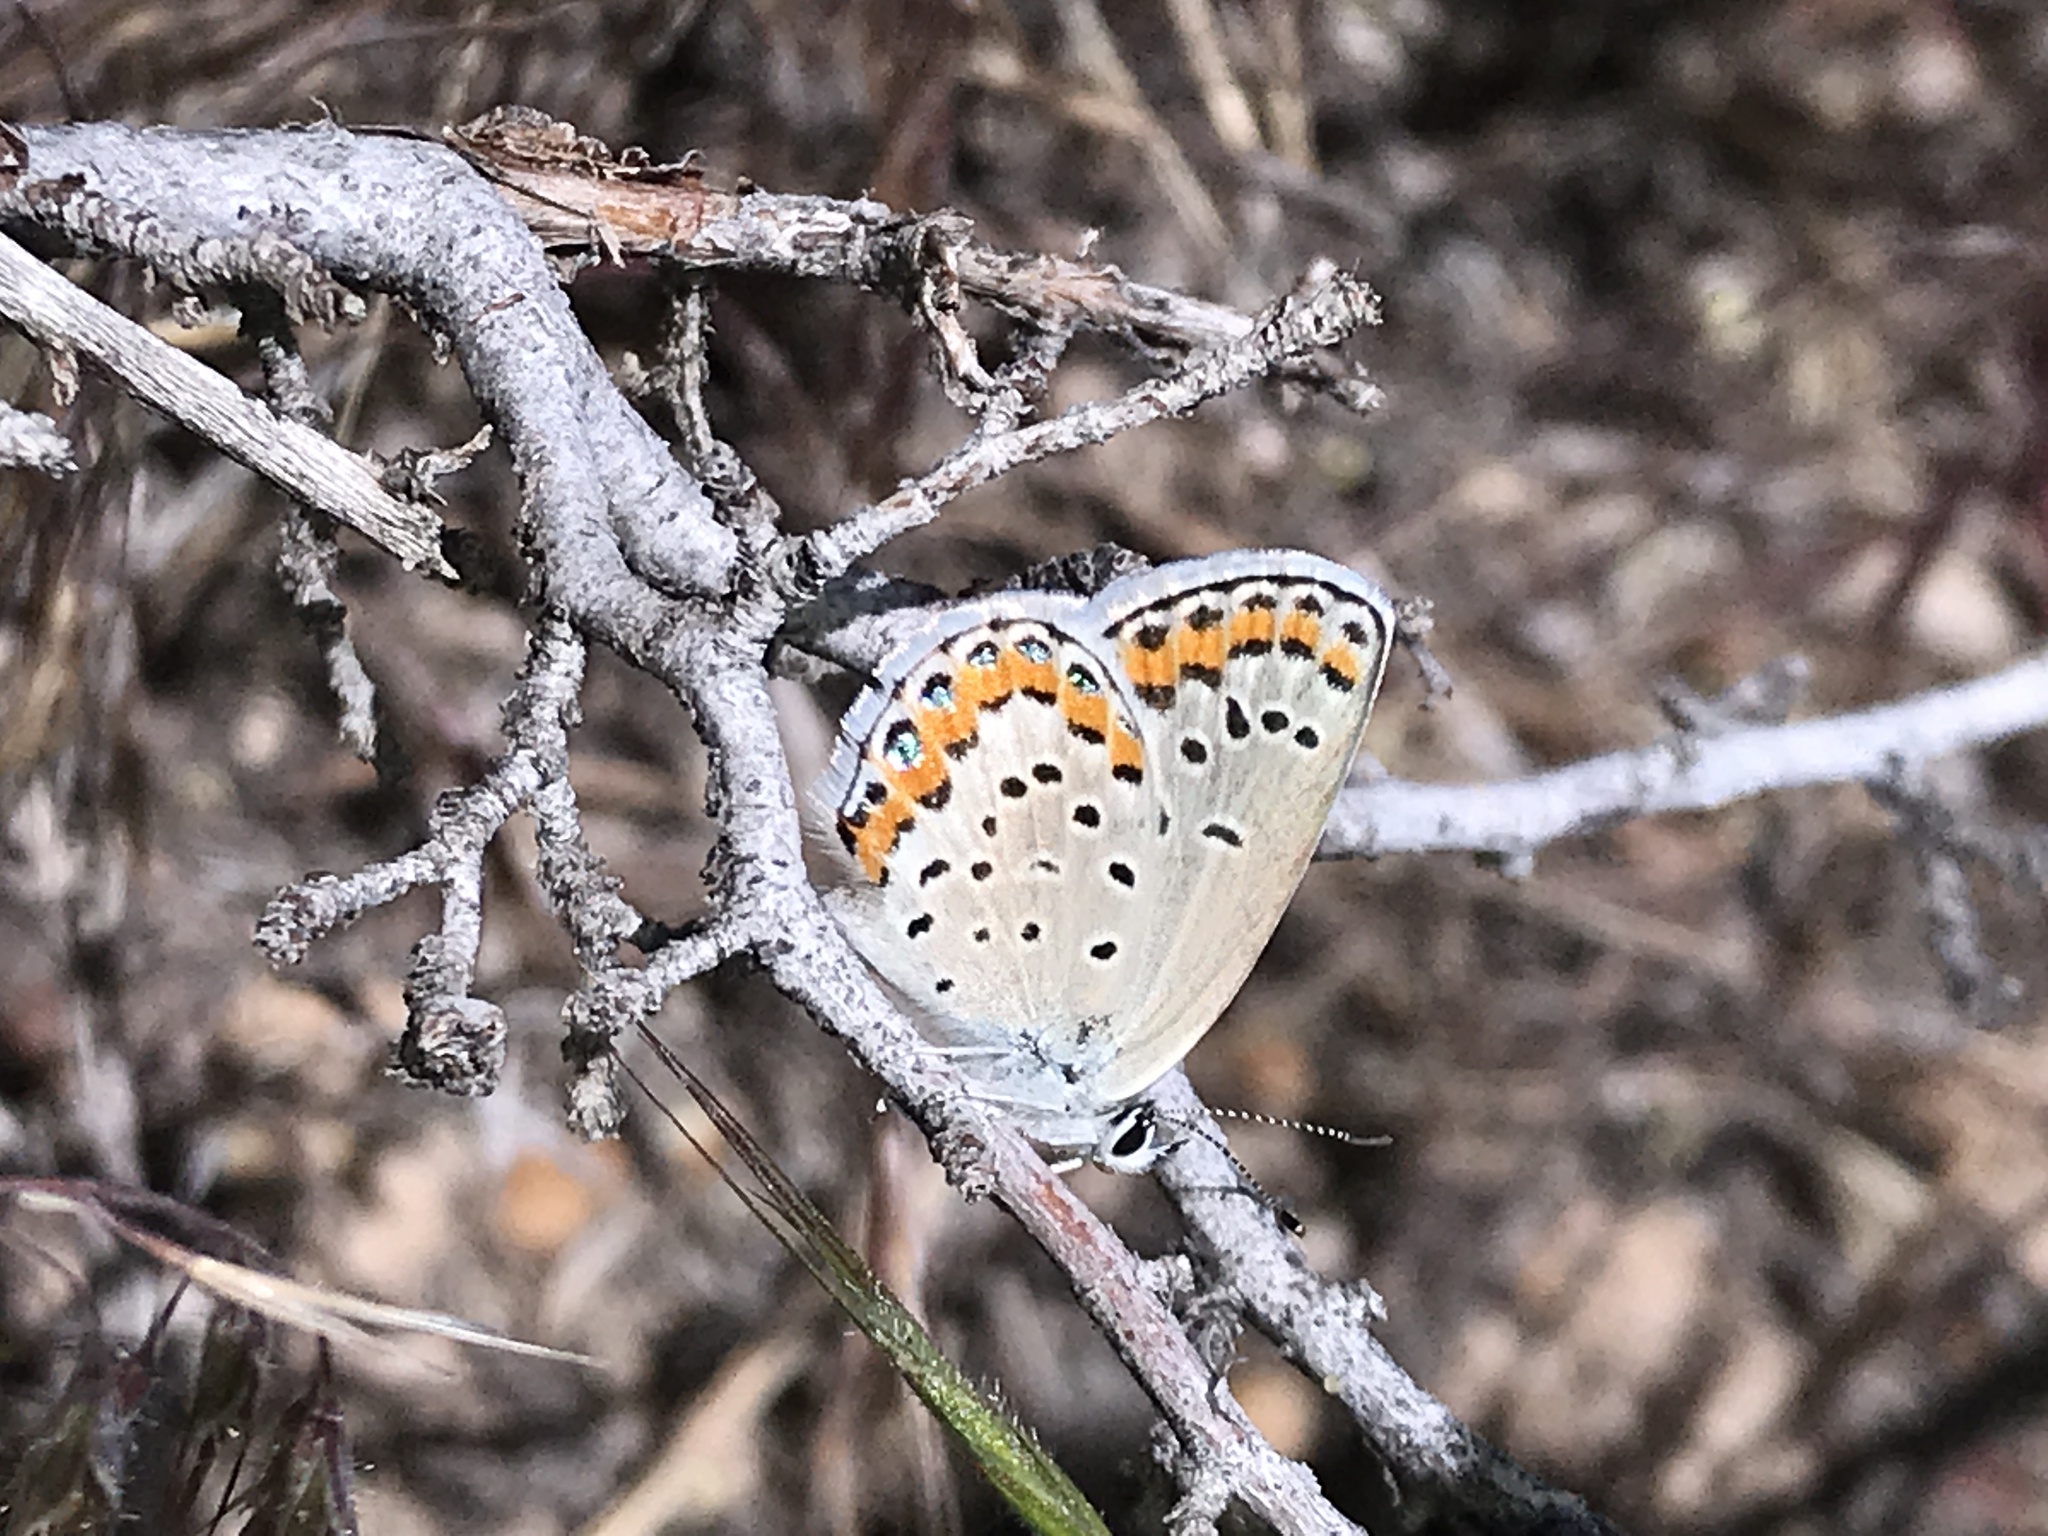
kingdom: Animalia
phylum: Arthropoda
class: Insecta
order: Lepidoptera
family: Lycaenidae
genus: Lycaeides
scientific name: Lycaeides melissa
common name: Melissa blue
